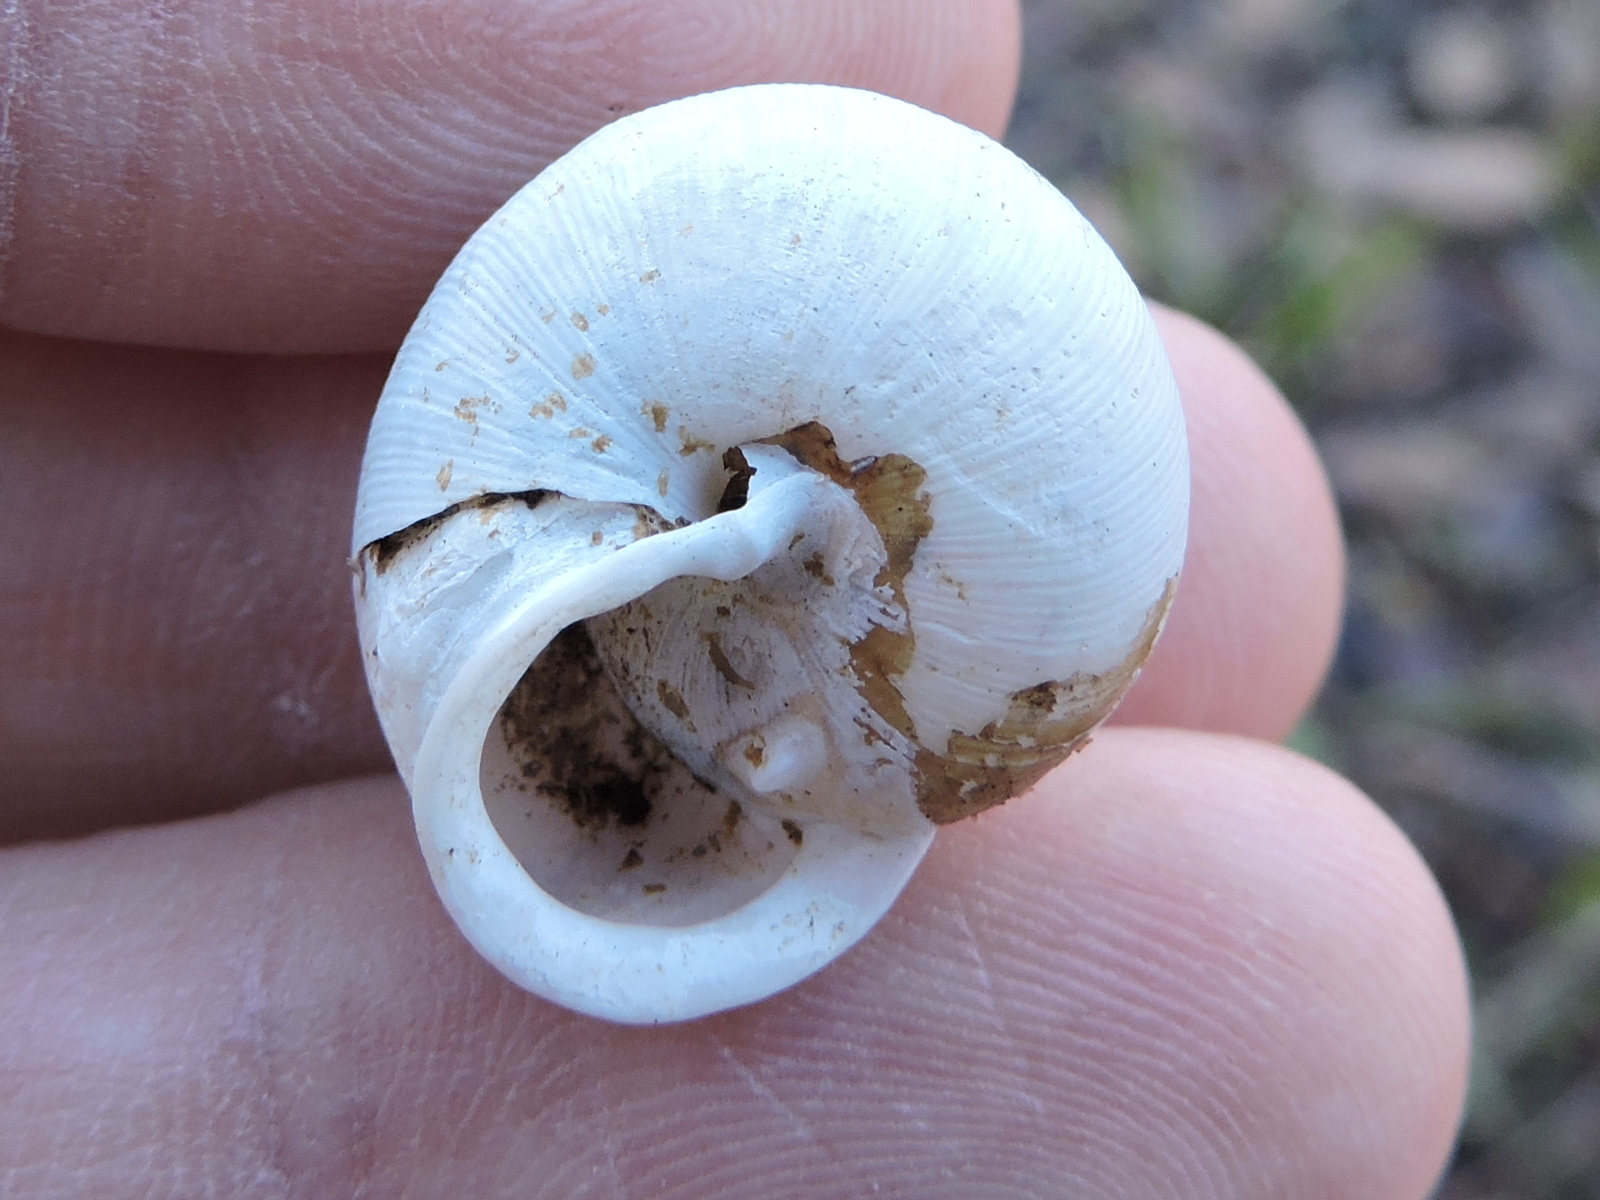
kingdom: Animalia
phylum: Mollusca
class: Gastropoda
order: Stylommatophora
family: Polygyridae
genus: Mesodon
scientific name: Mesodon thyroidus
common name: White-lip globe
